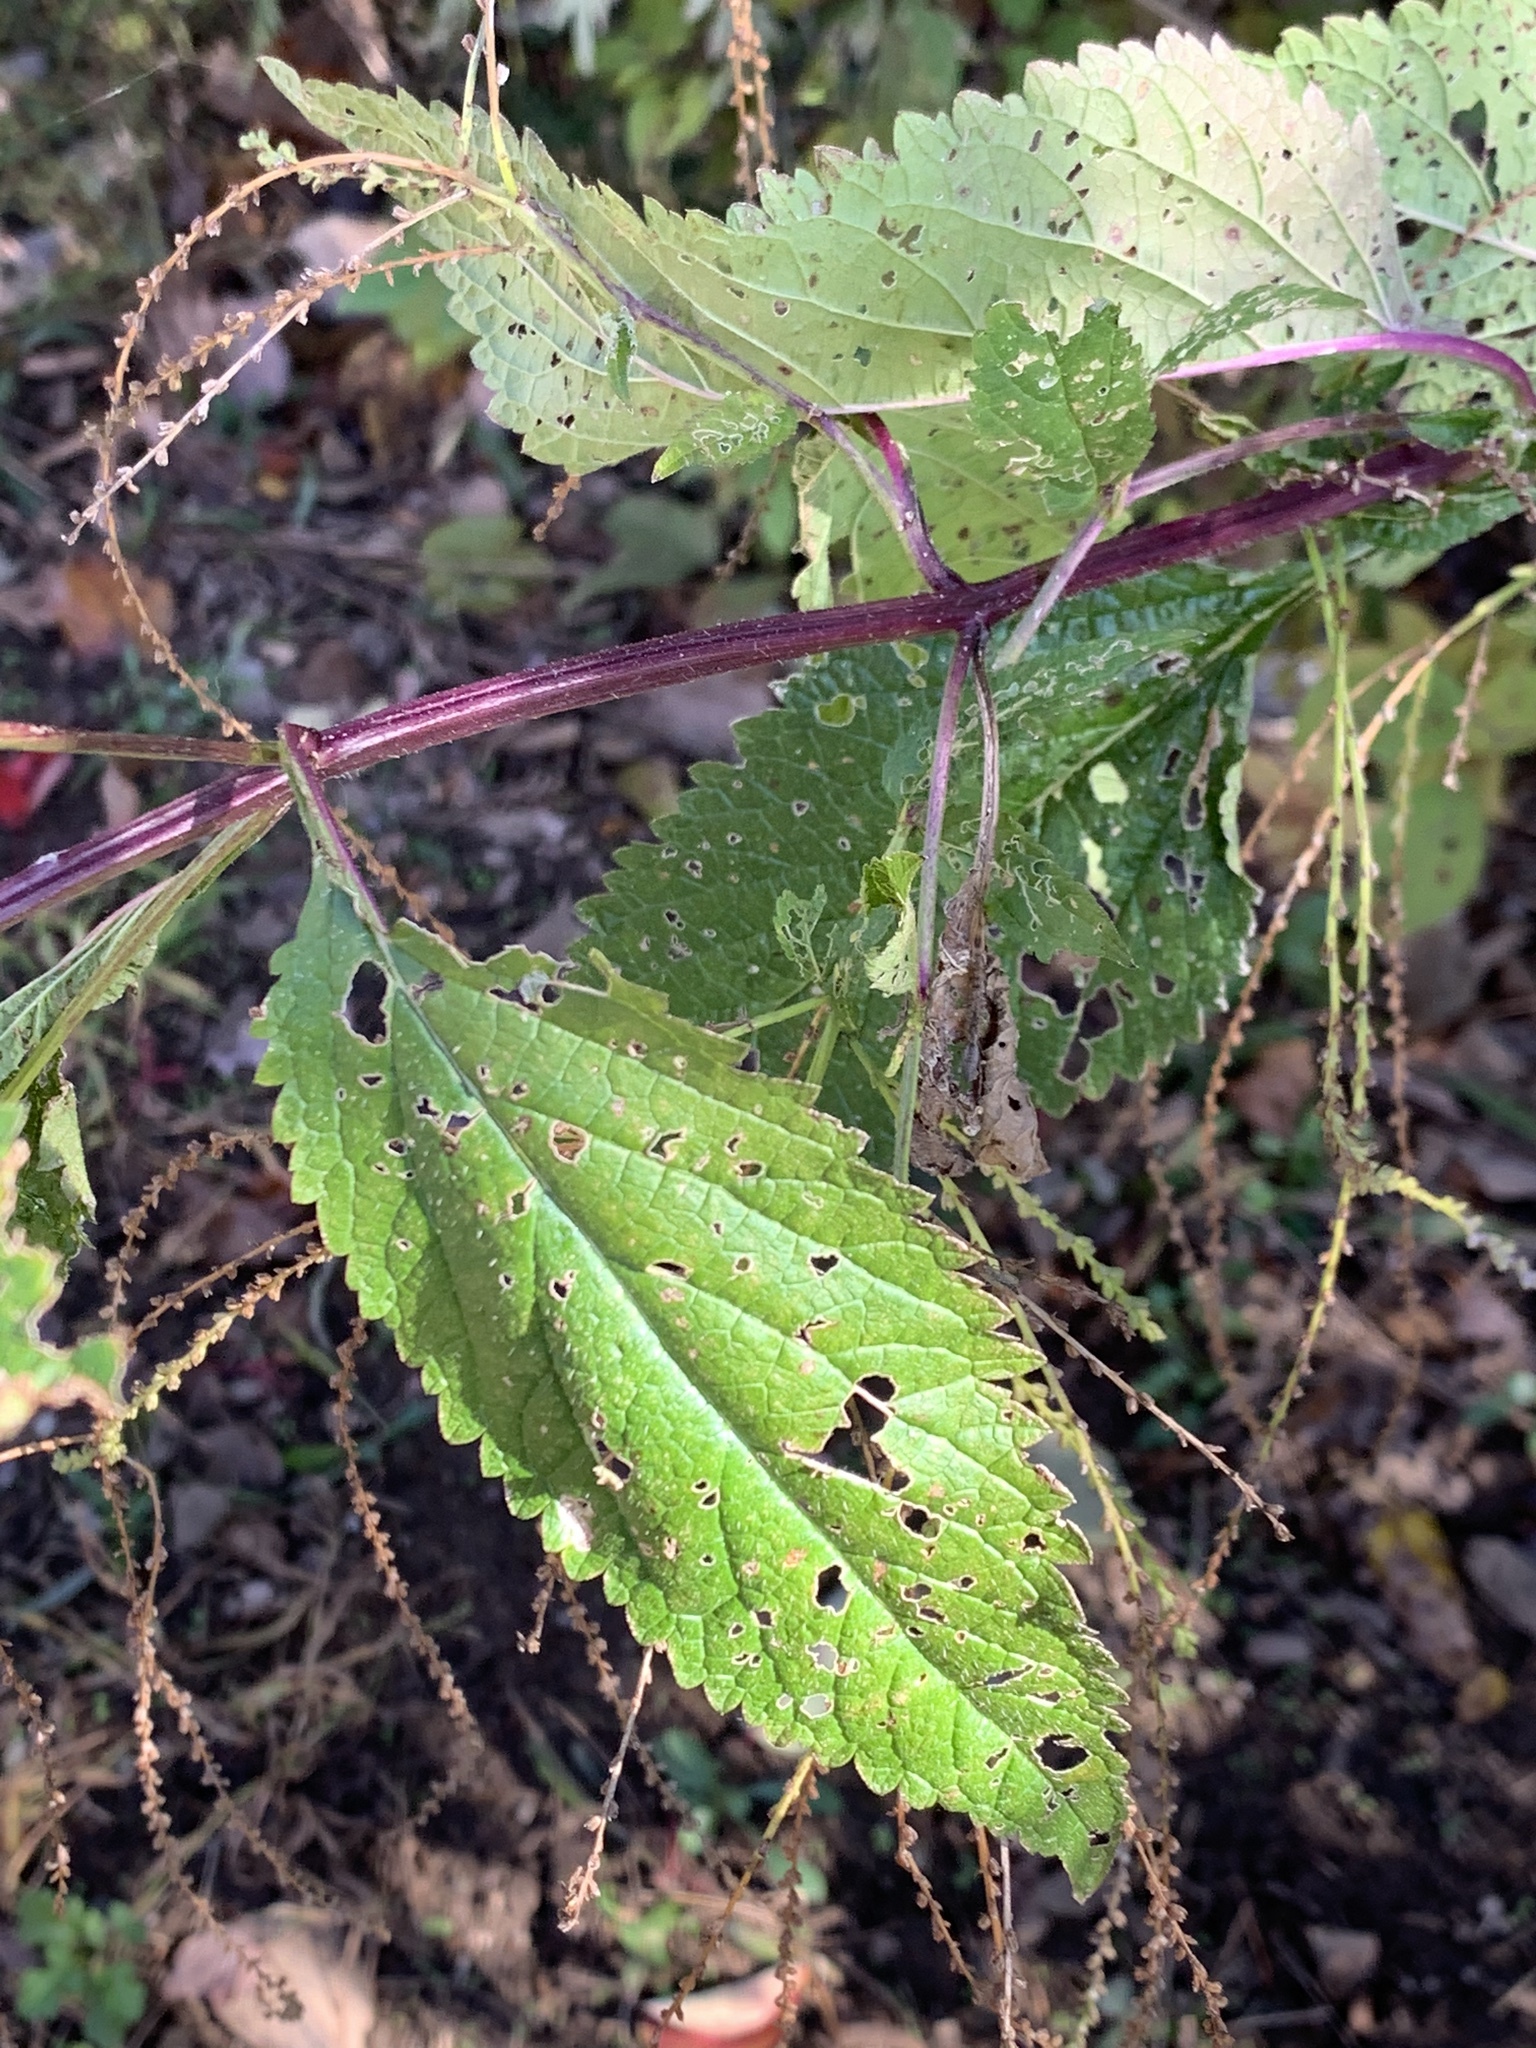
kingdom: Plantae
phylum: Tracheophyta
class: Magnoliopsida
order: Lamiales
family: Verbenaceae
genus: Verbena
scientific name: Verbena urticifolia
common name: Nettle-leaved vervain
